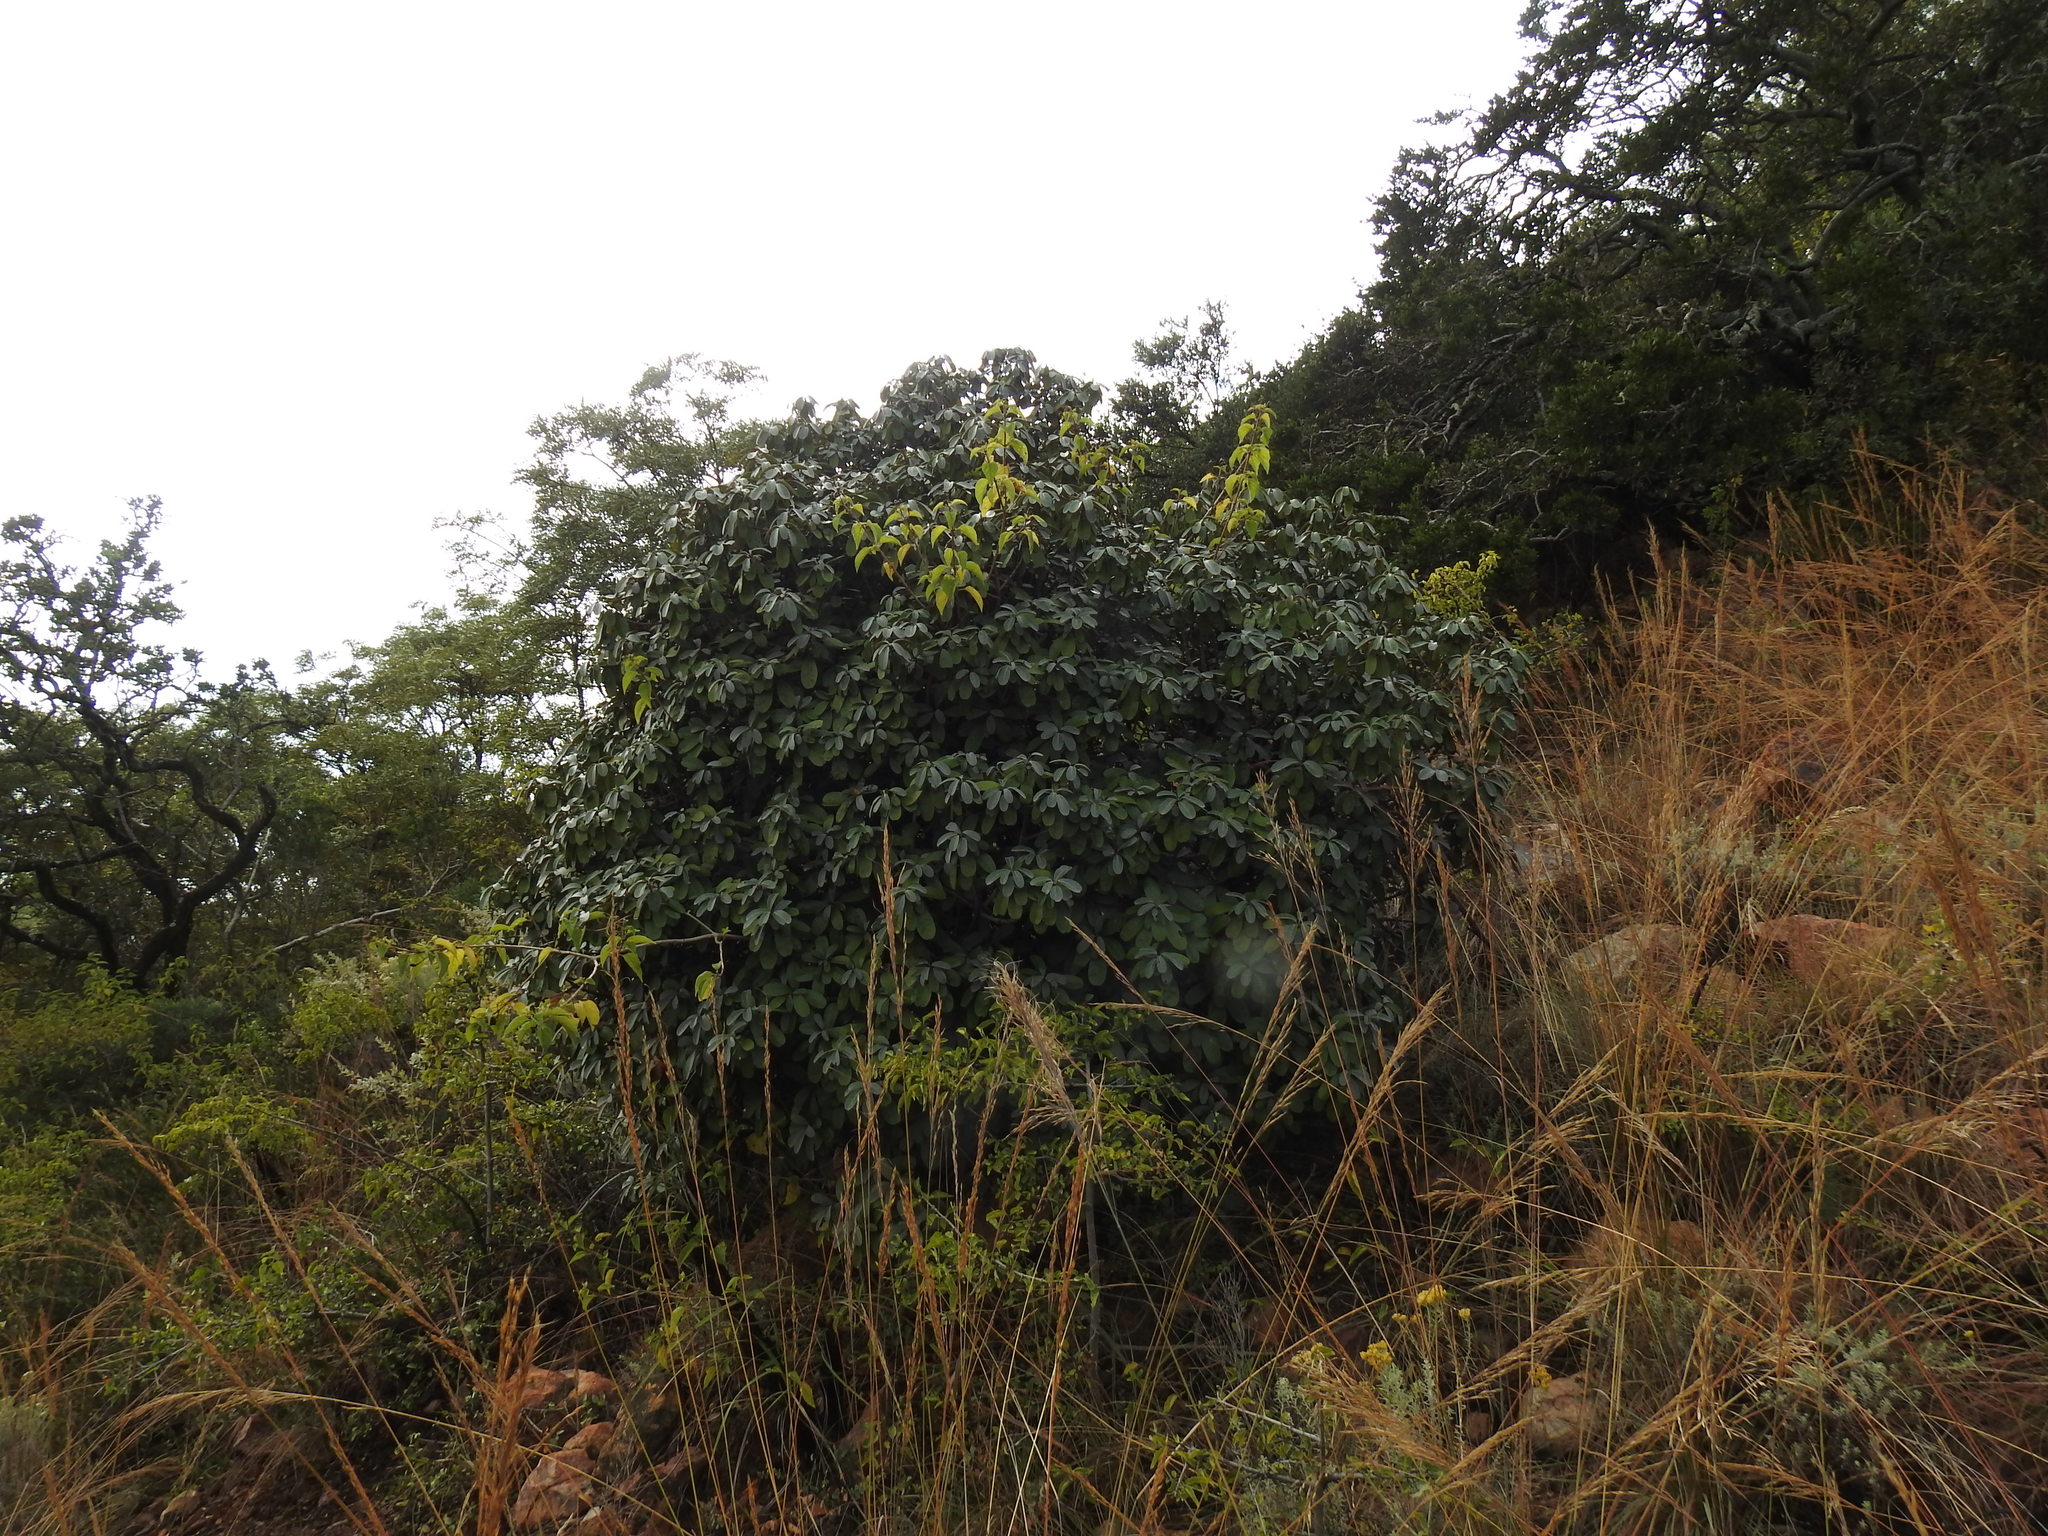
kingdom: Plantae
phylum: Tracheophyta
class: Magnoliopsida
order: Ericales
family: Sapotaceae
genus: Englerophytum
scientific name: Englerophytum magalismontanum
